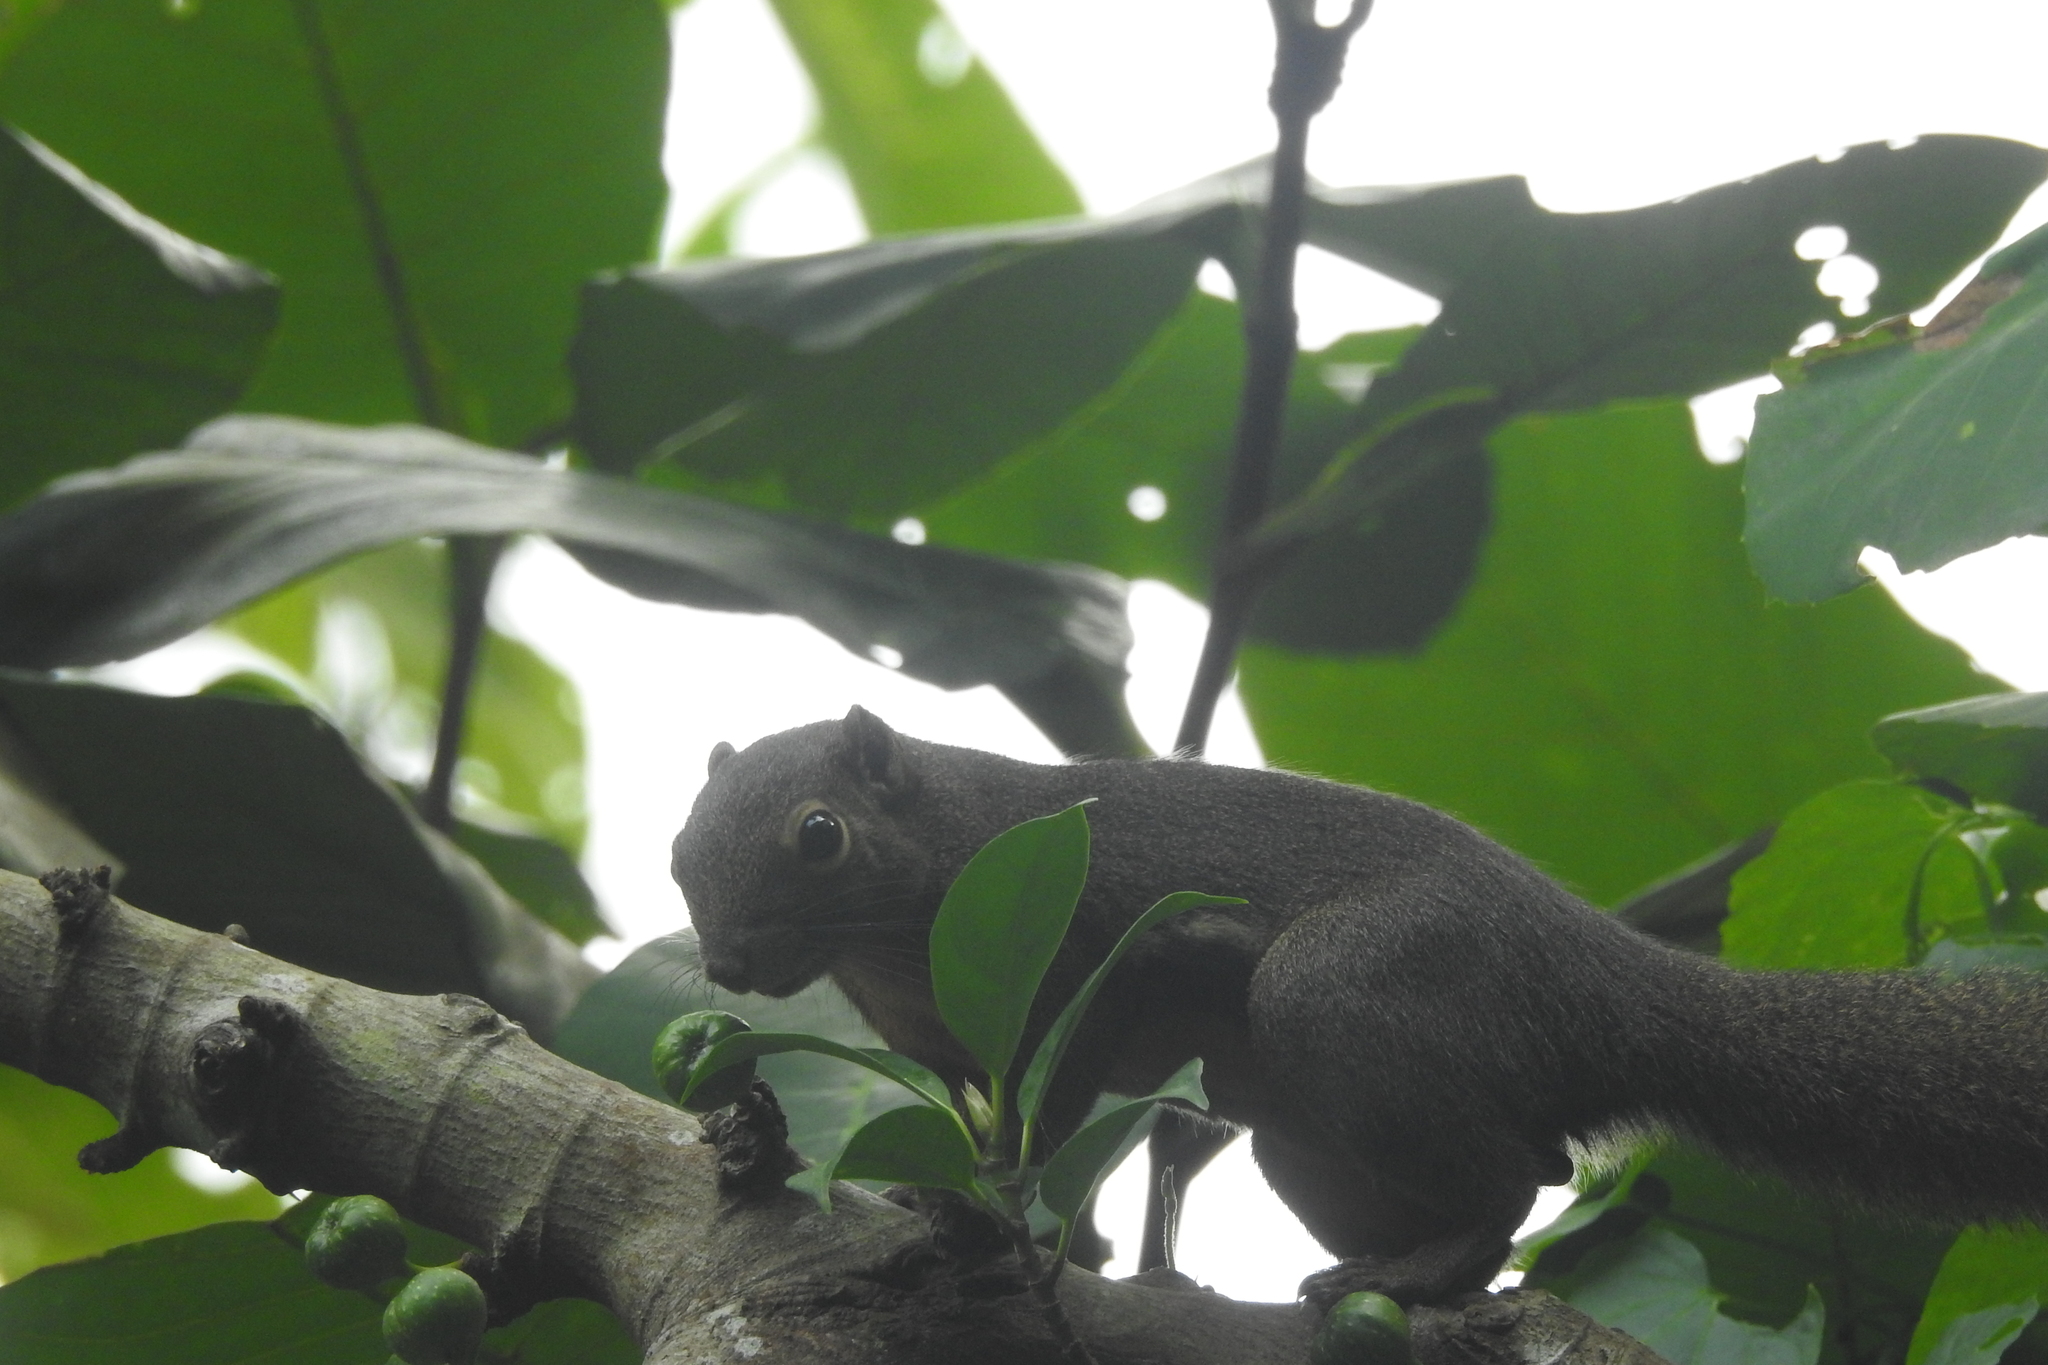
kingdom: Animalia
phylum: Chordata
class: Mammalia
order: Rodentia
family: Sciuridae
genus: Callosciurus
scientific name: Callosciurus notatus
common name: Plantain squirrel
